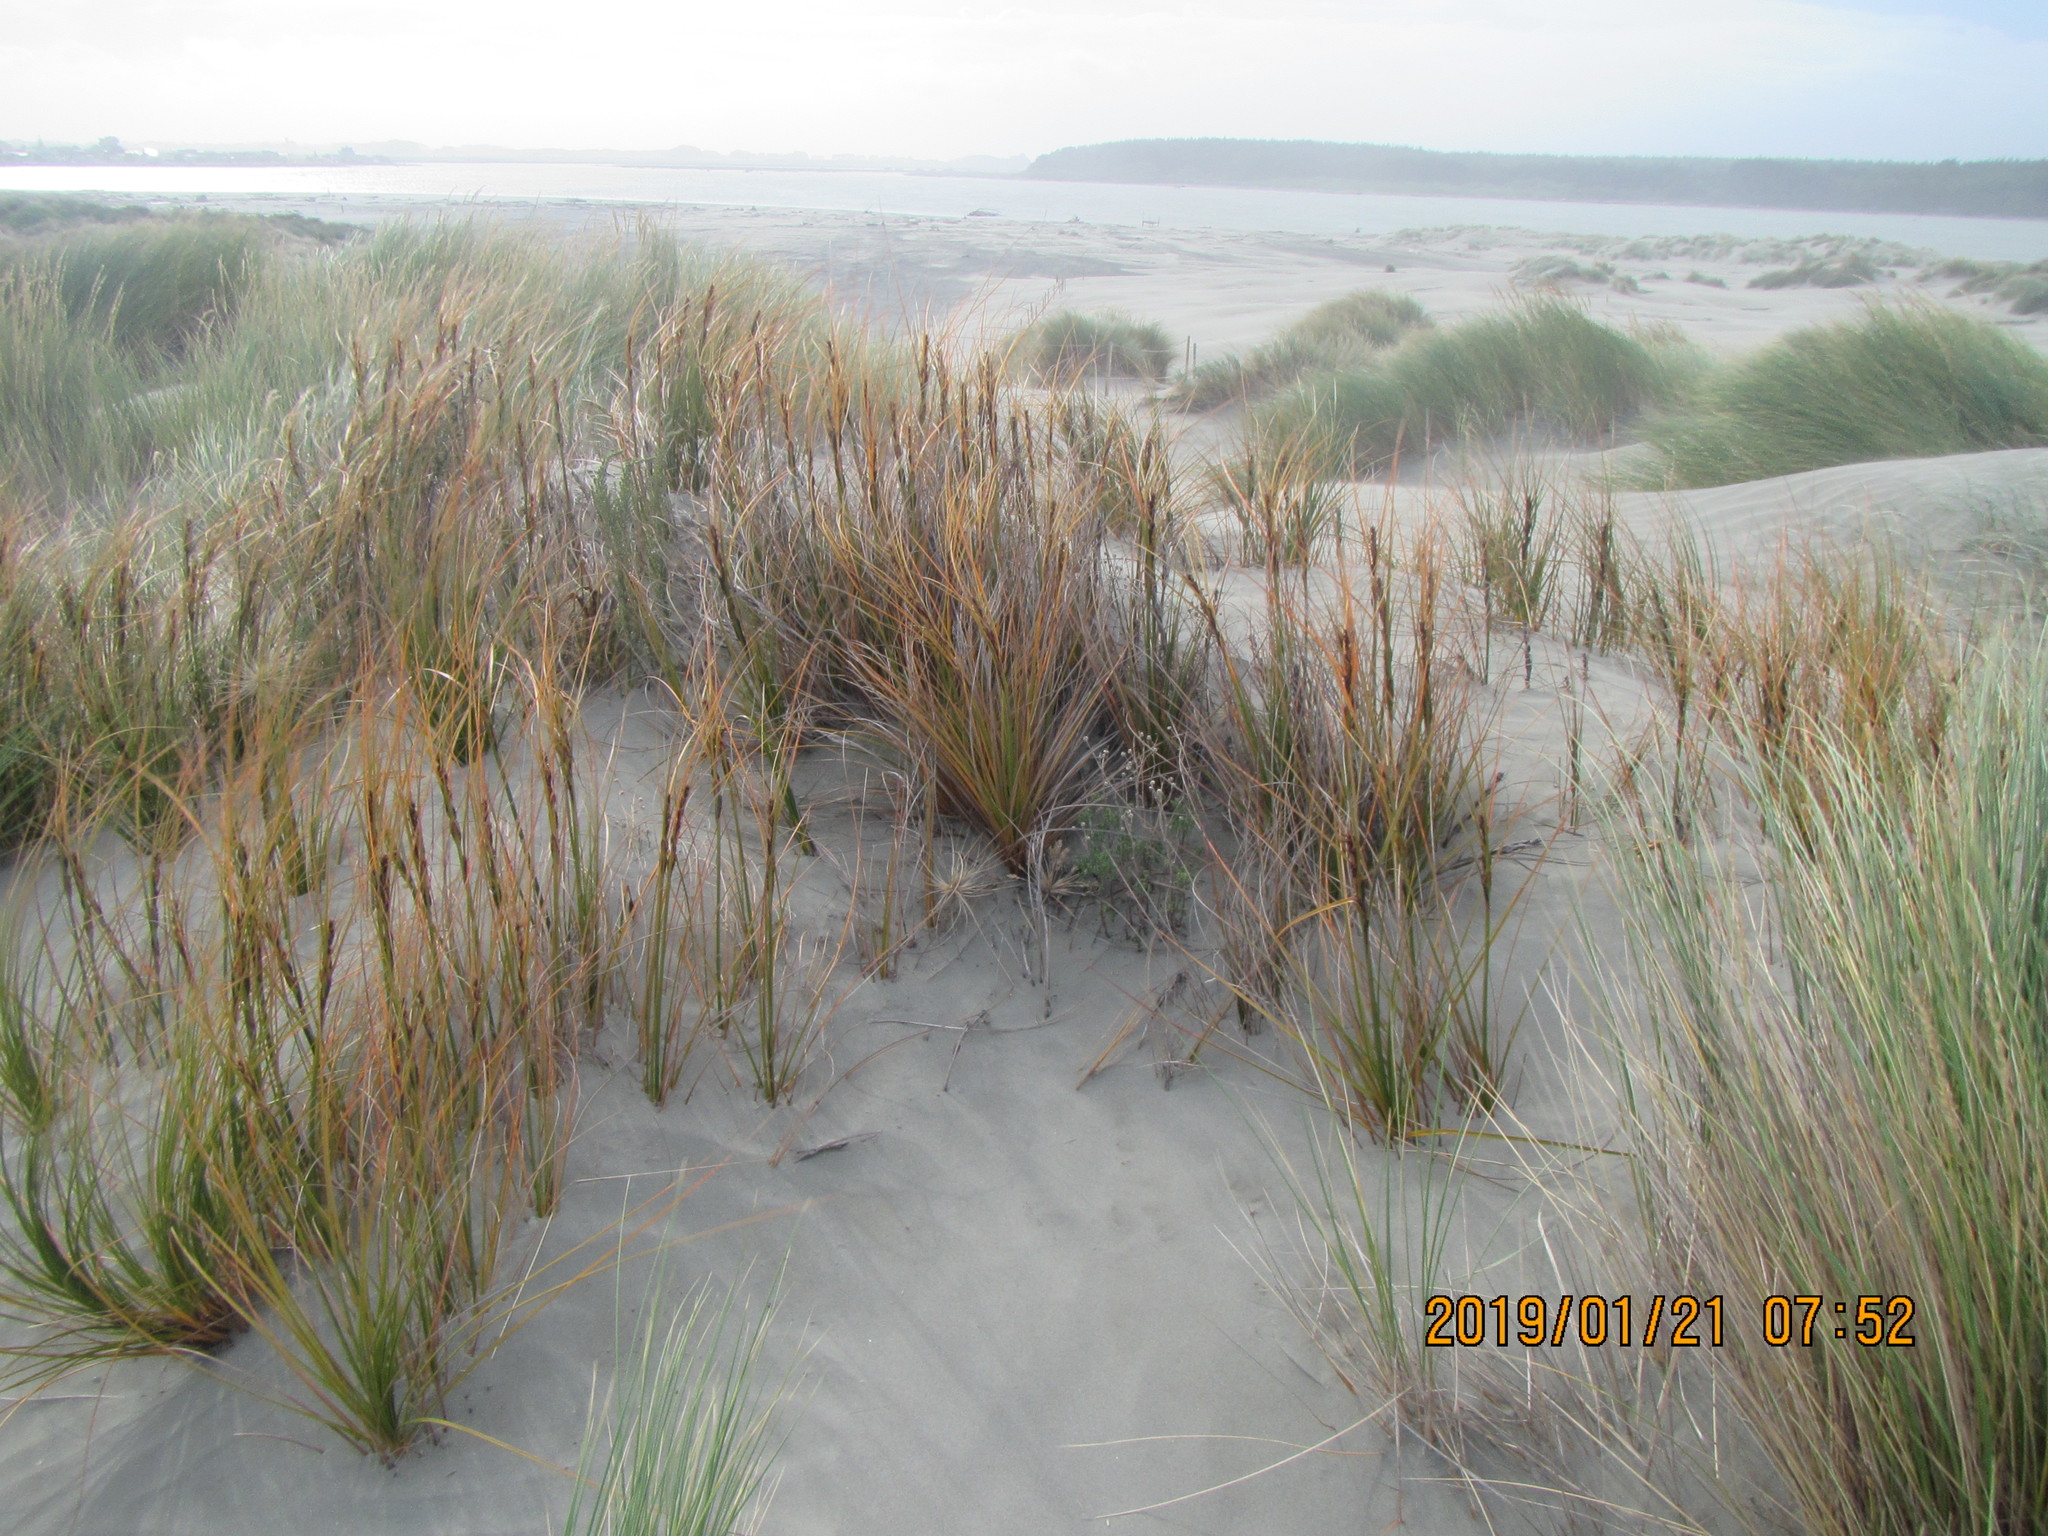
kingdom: Plantae
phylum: Tracheophyta
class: Liliopsida
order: Poales
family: Cyperaceae
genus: Ficinia
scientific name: Ficinia spiralis
